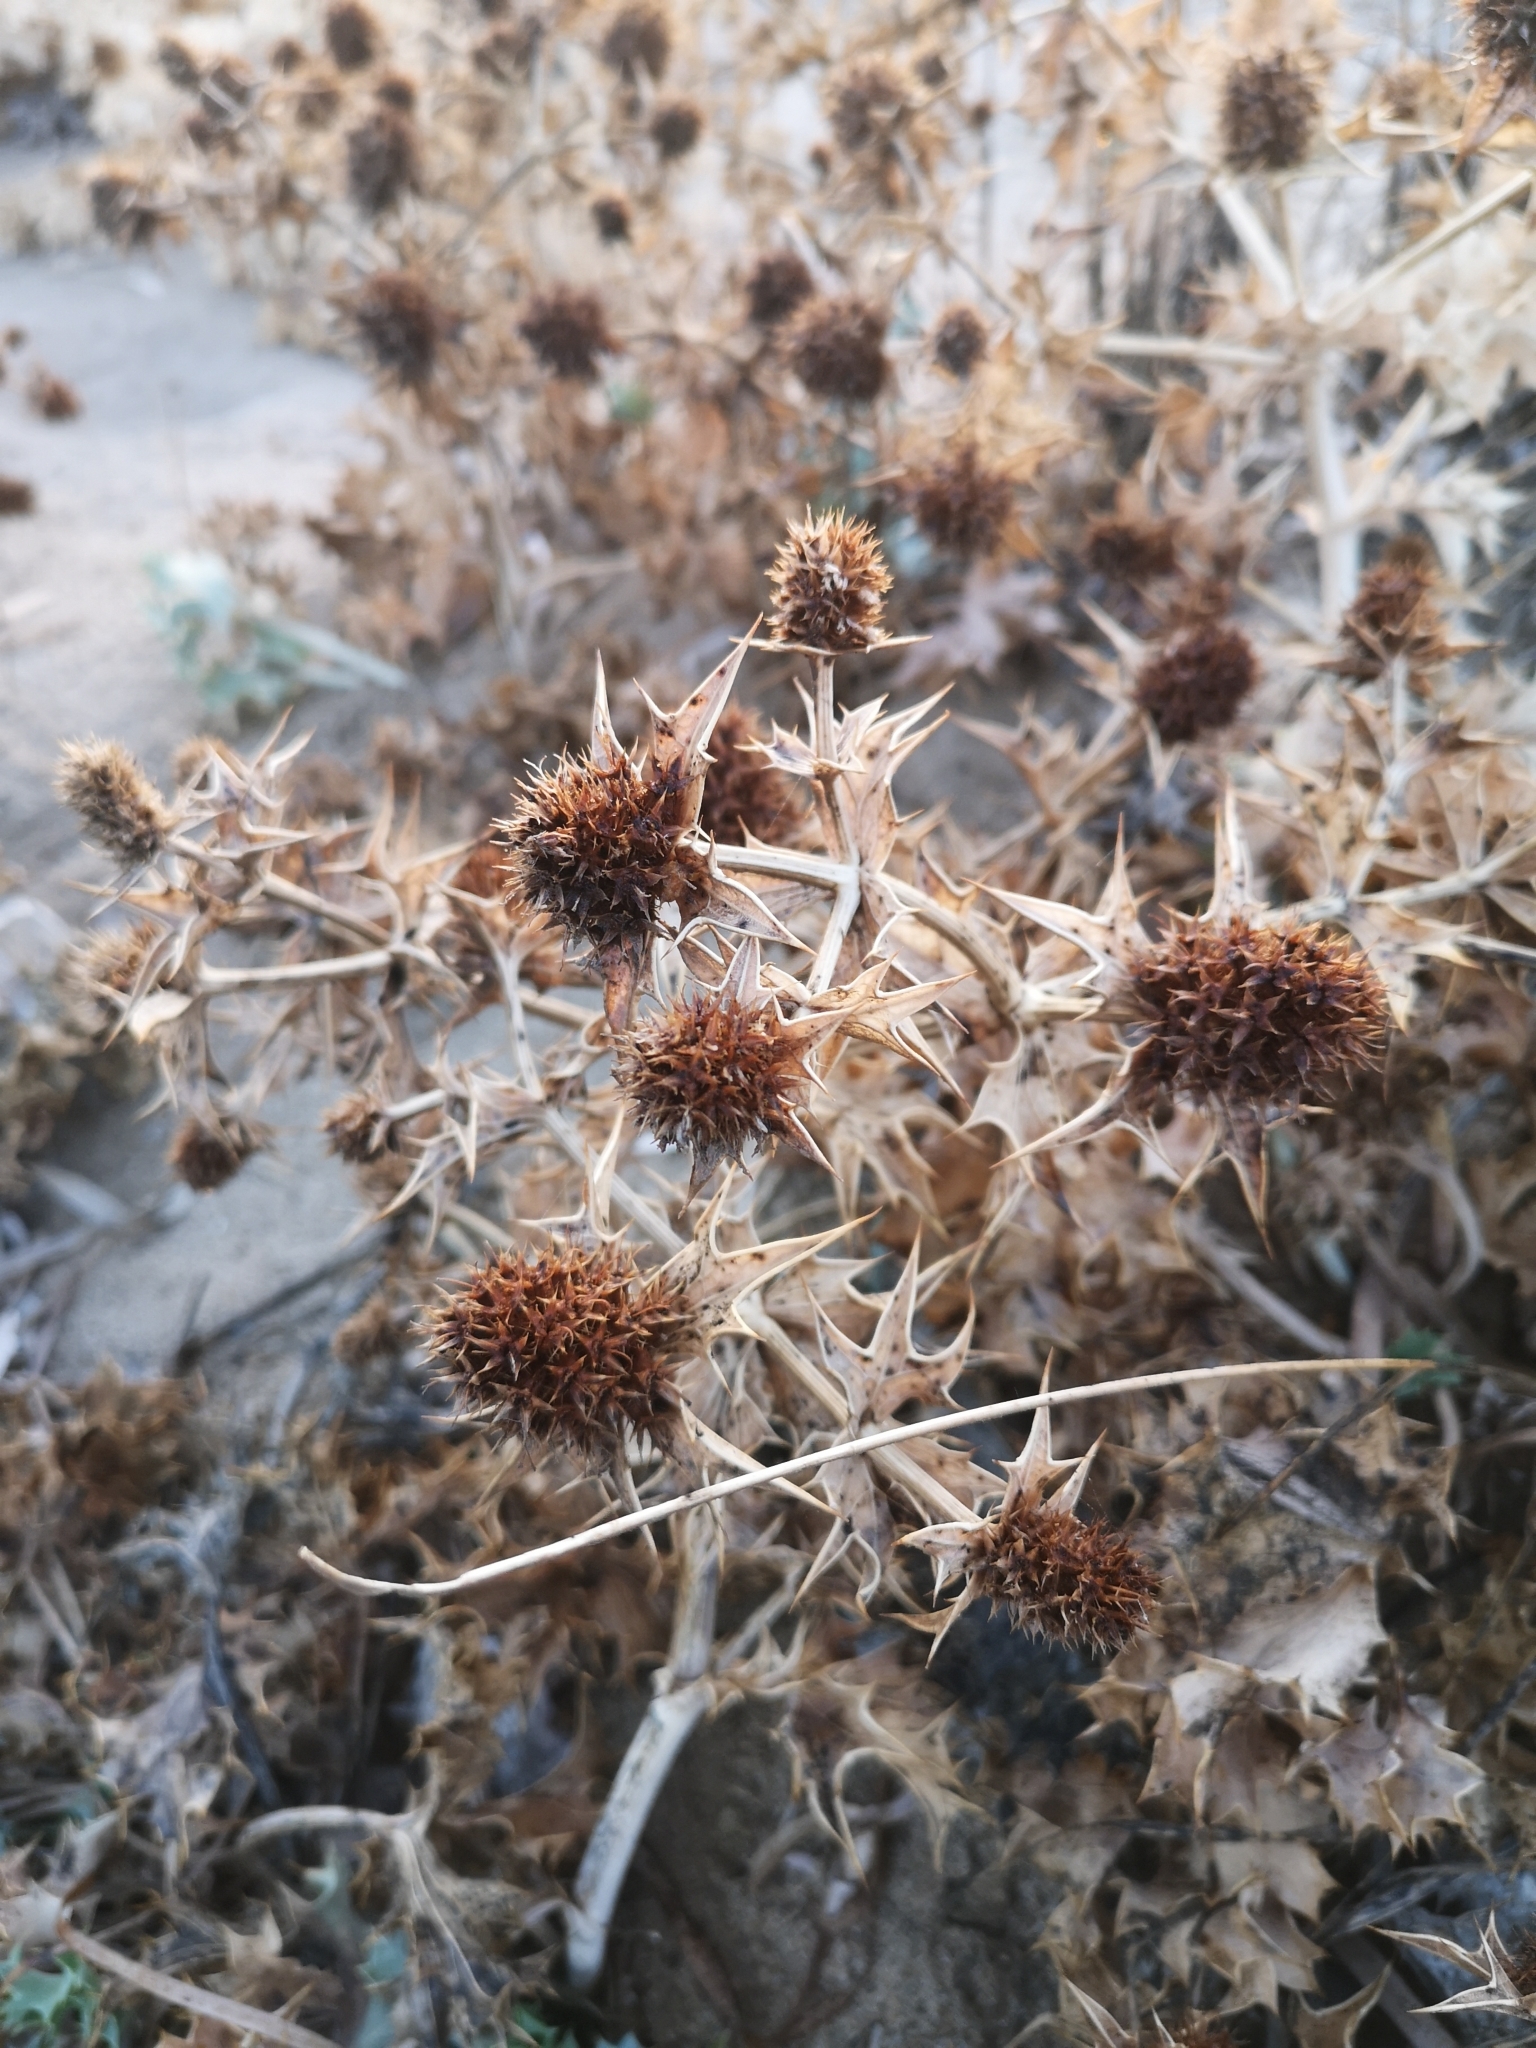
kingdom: Plantae
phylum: Tracheophyta
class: Magnoliopsida
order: Apiales
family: Apiaceae
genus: Eryngium
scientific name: Eryngium maritimum
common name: Sea-holly
